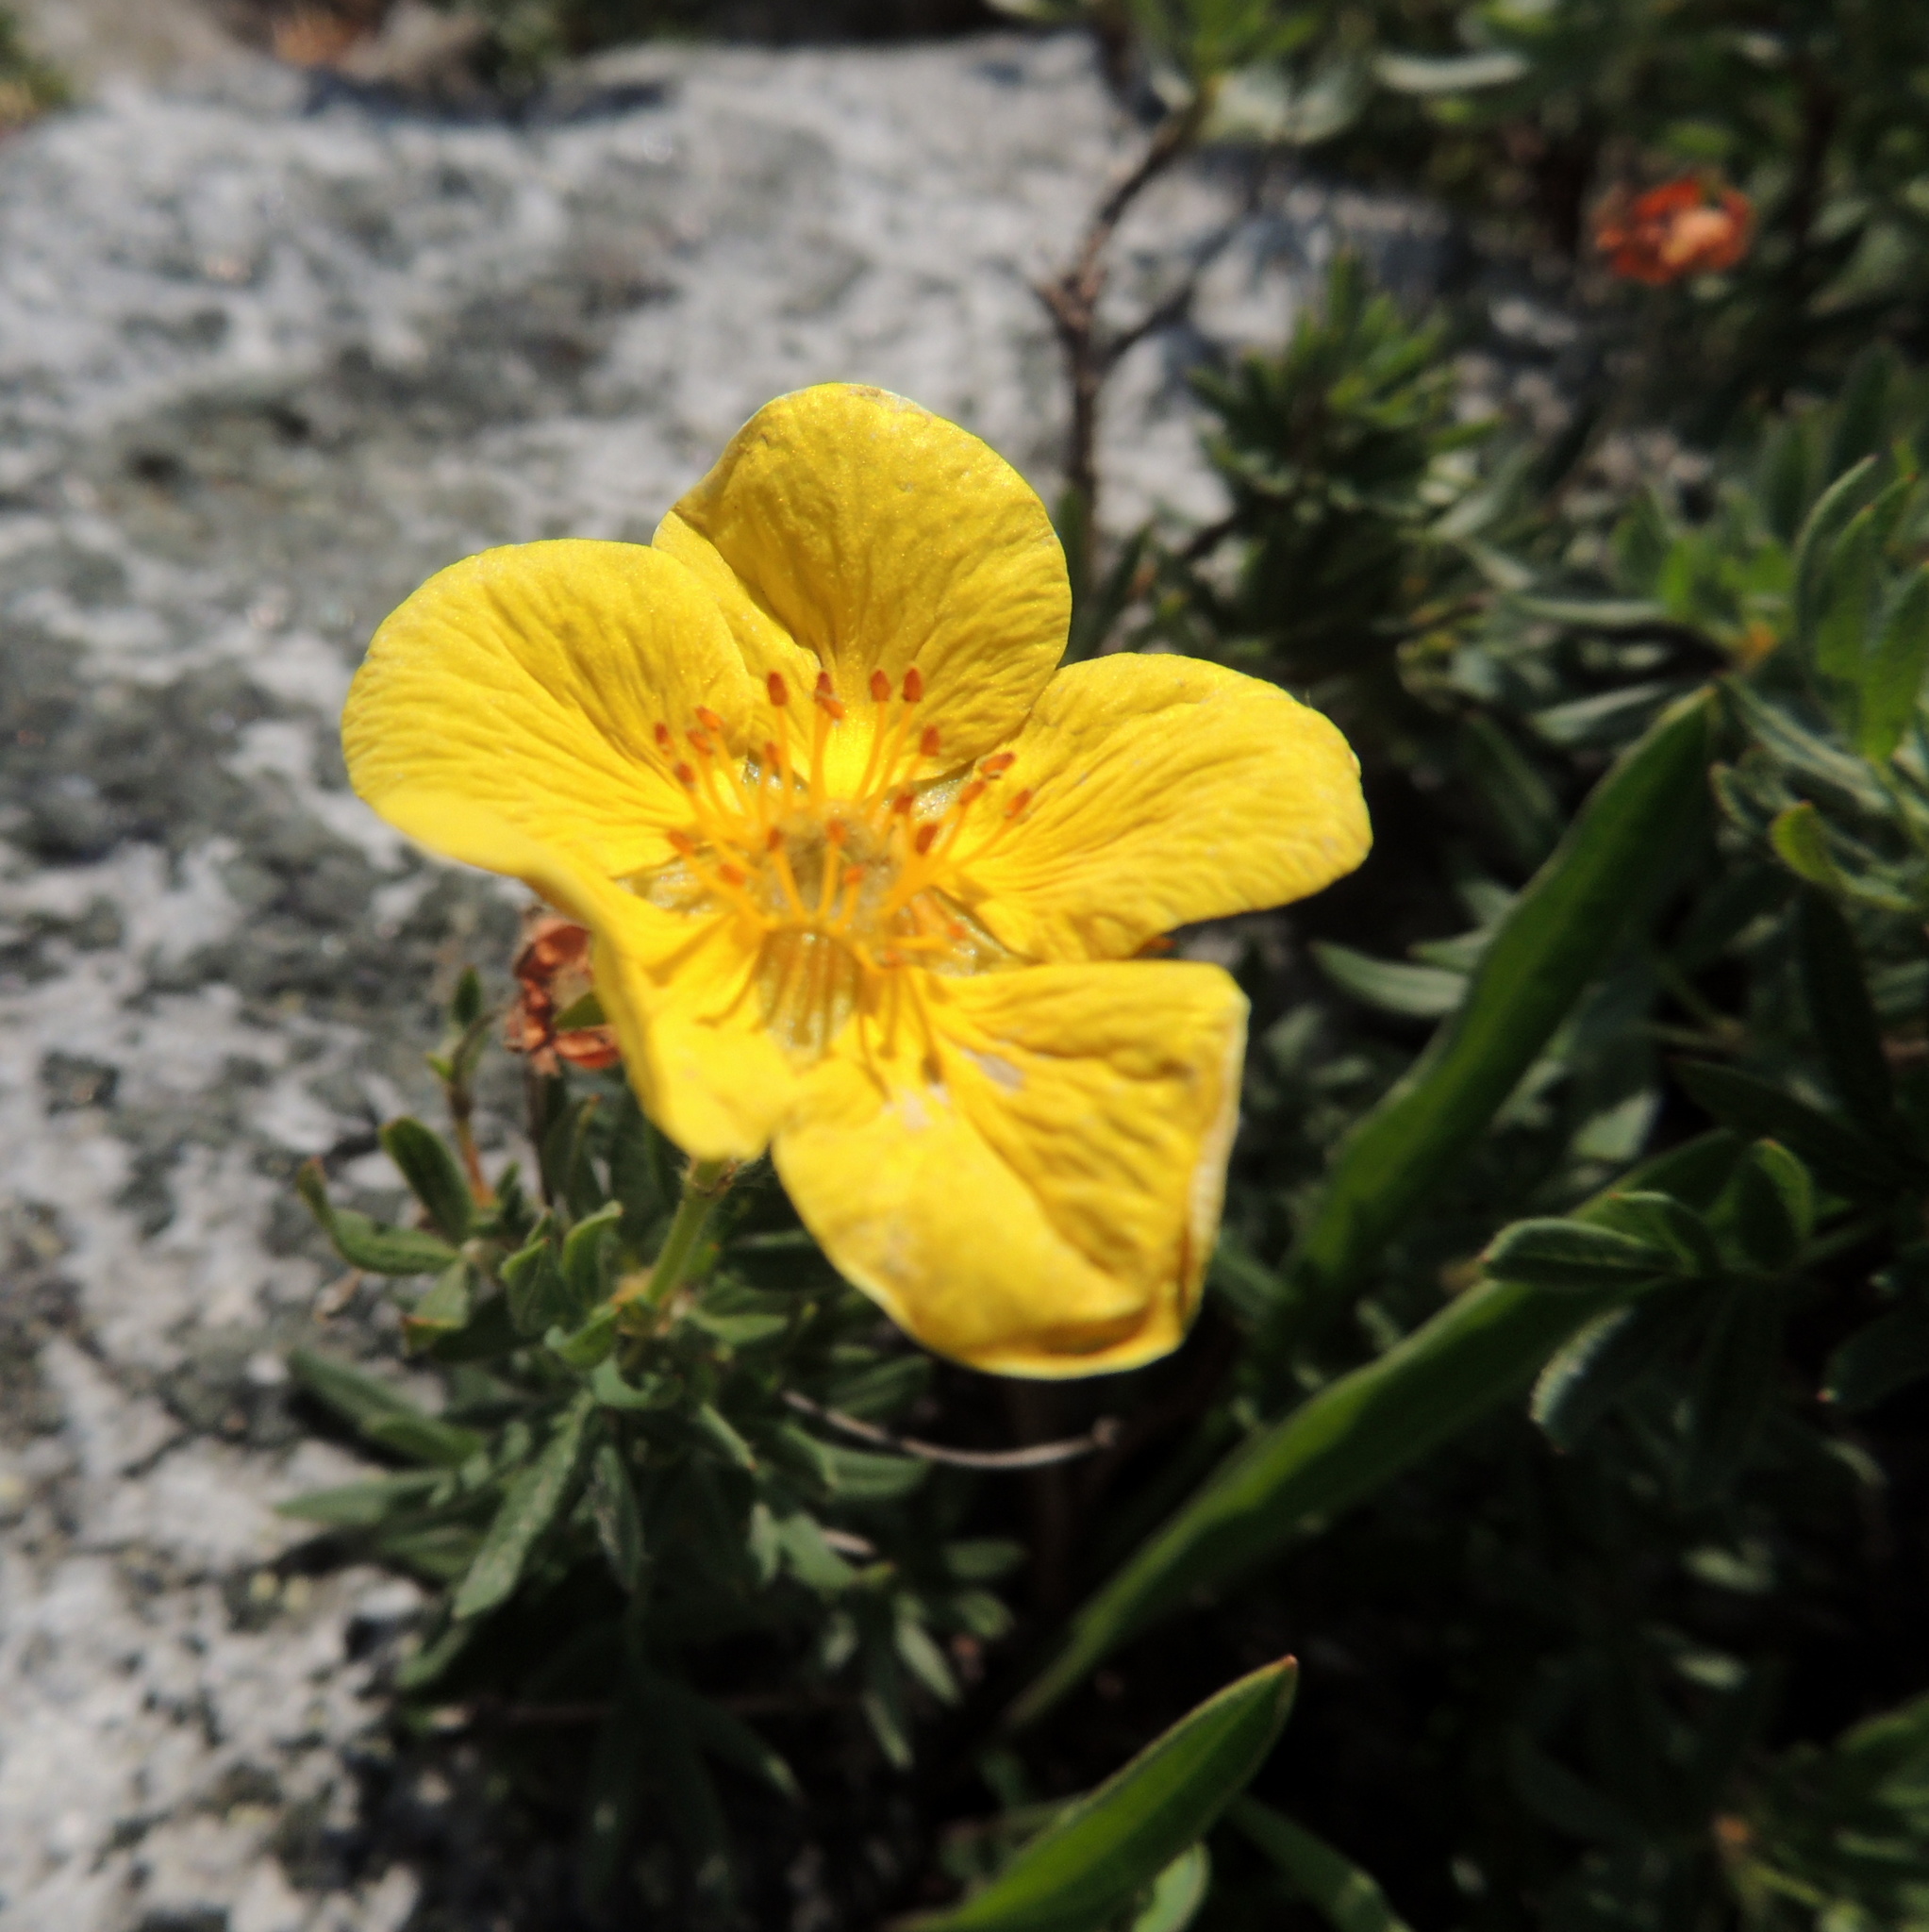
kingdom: Plantae
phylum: Tracheophyta
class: Magnoliopsida
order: Rosales
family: Rosaceae
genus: Dasiphora
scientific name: Dasiphora fruticosa
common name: Shrubby cinquefoil
